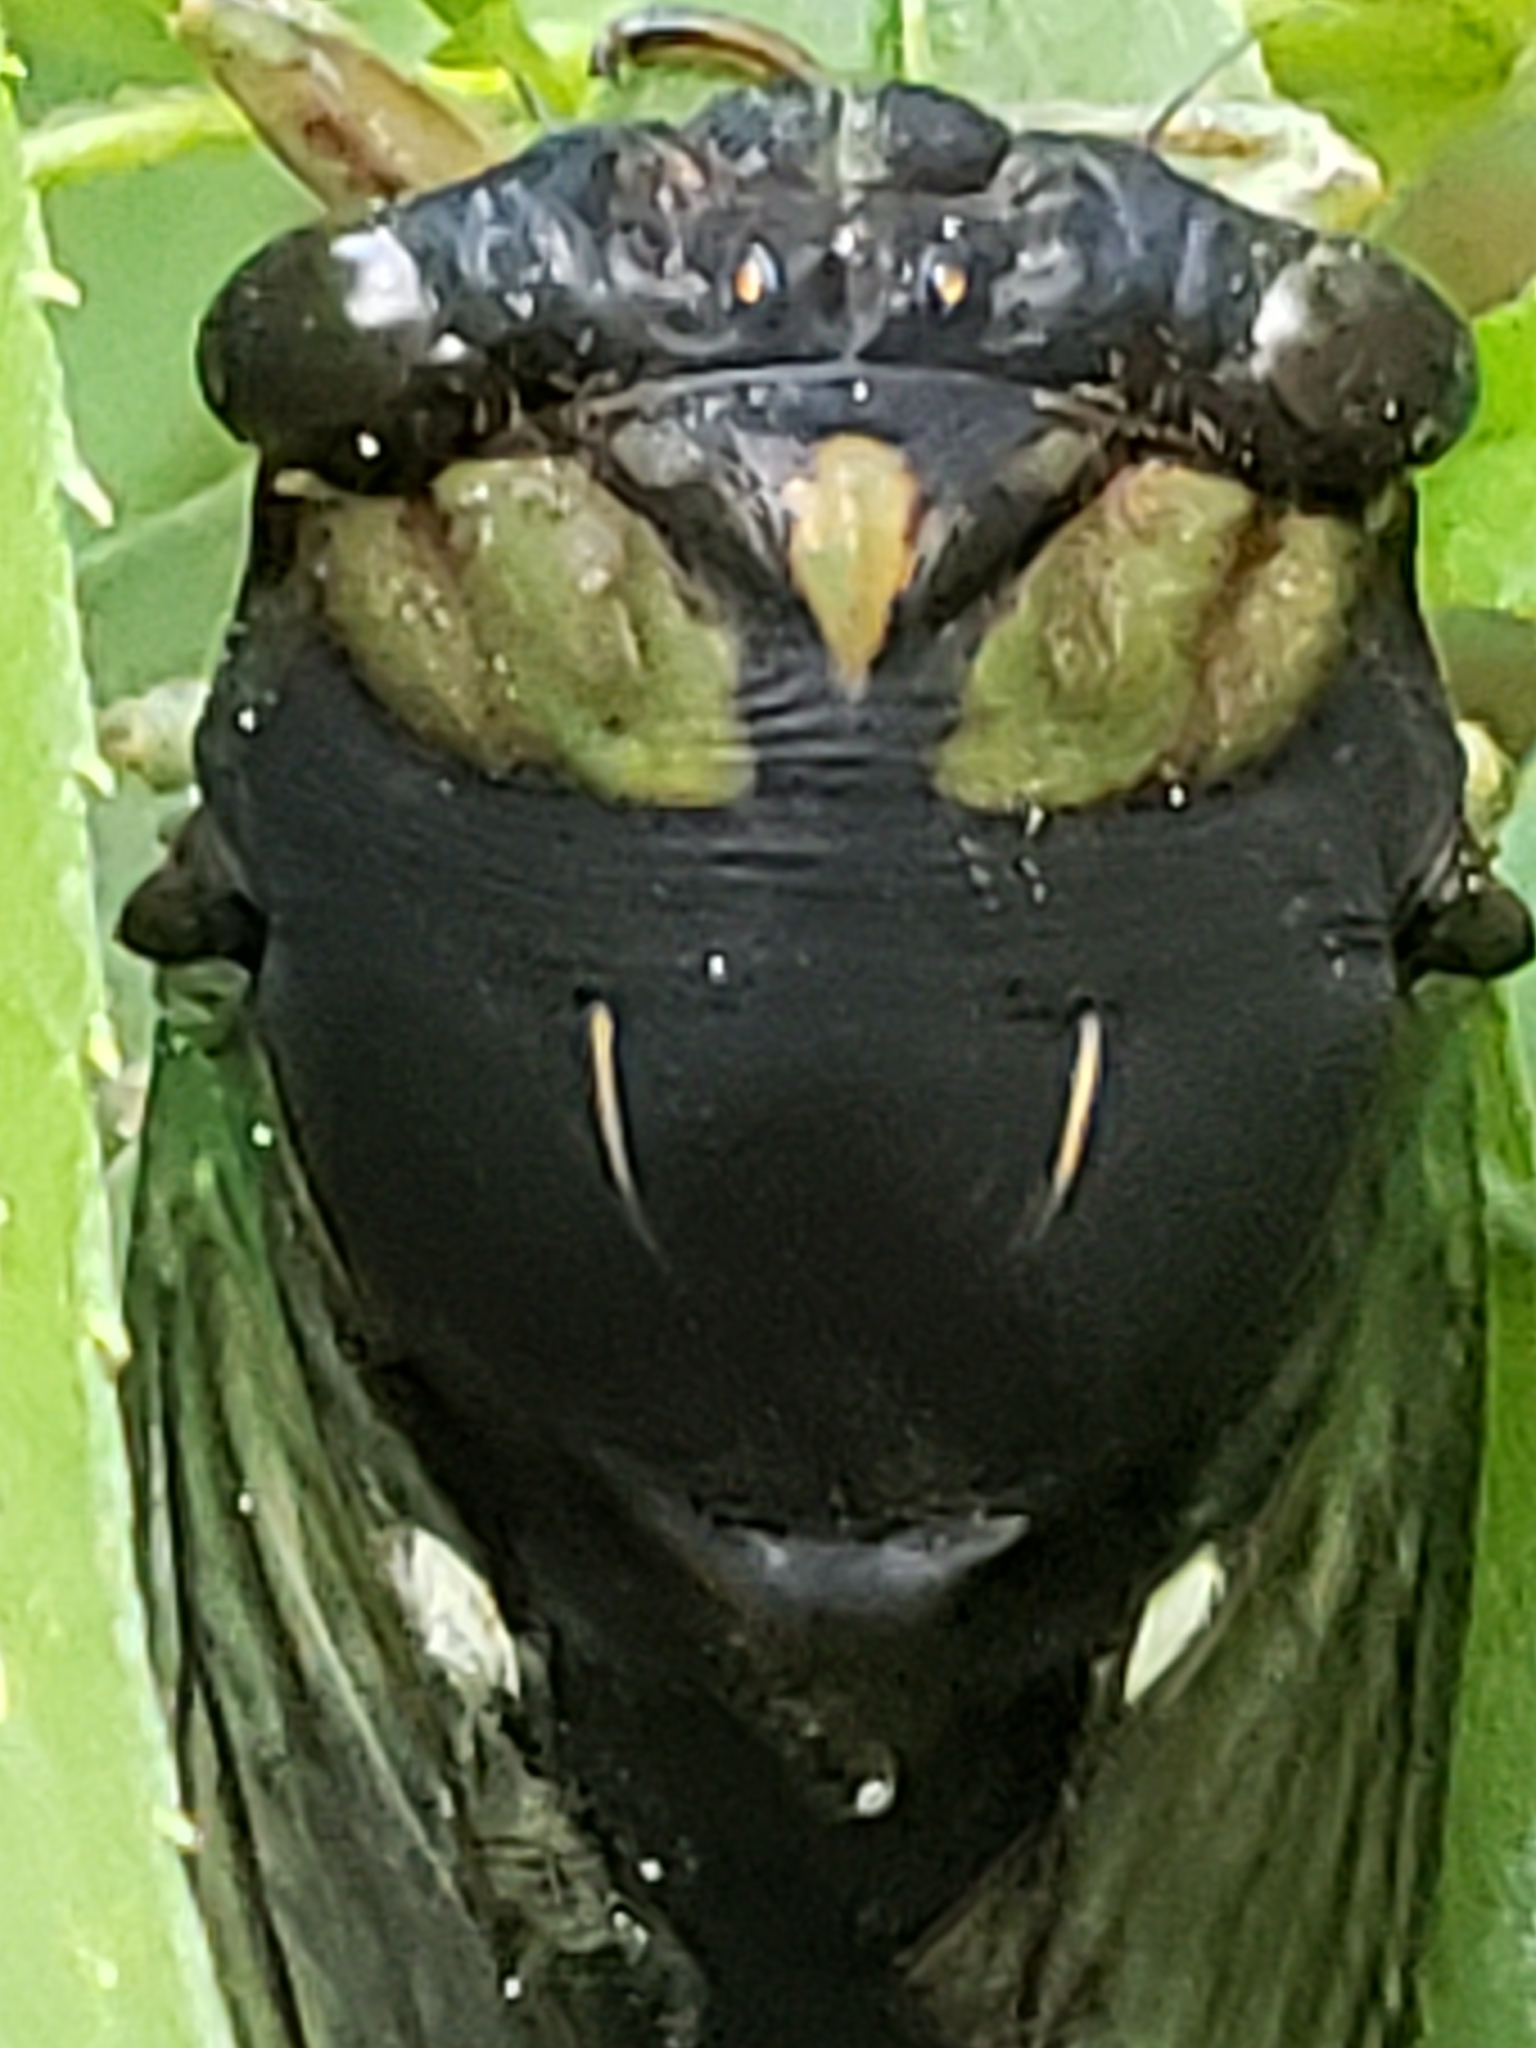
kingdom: Animalia
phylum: Arthropoda
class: Insecta
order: Hemiptera
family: Cicadidae
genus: Neotibicen
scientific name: Neotibicen tibicen
